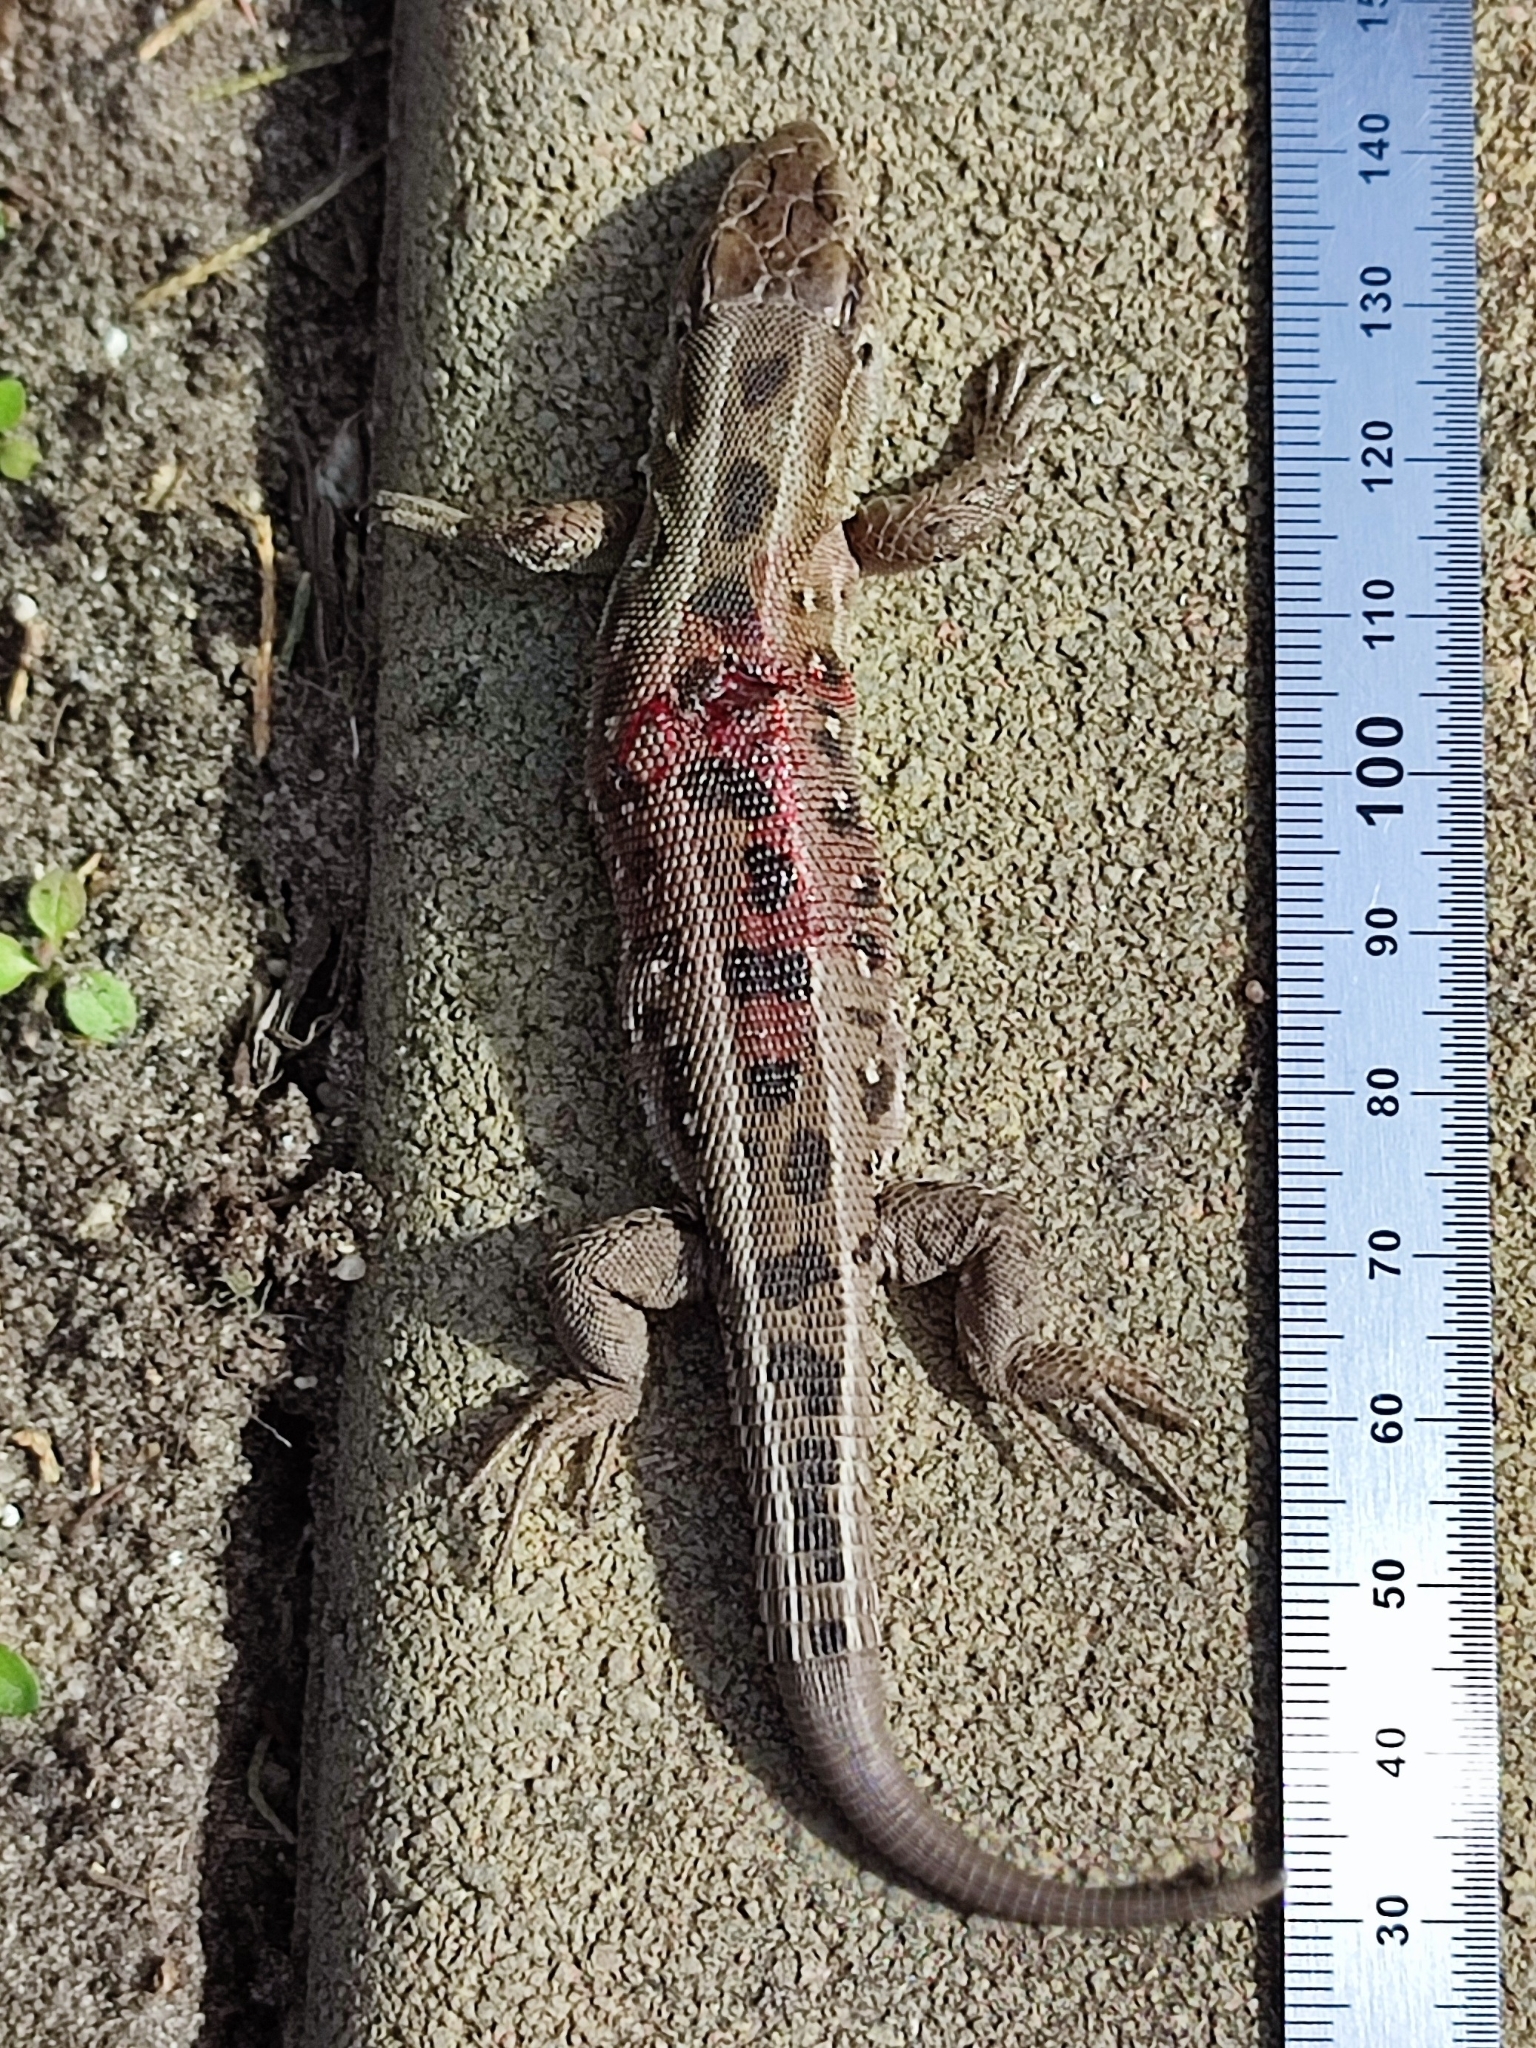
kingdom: Animalia
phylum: Chordata
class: Squamata
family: Lacertidae
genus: Lacerta
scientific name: Lacerta agilis
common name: Sand lizard
